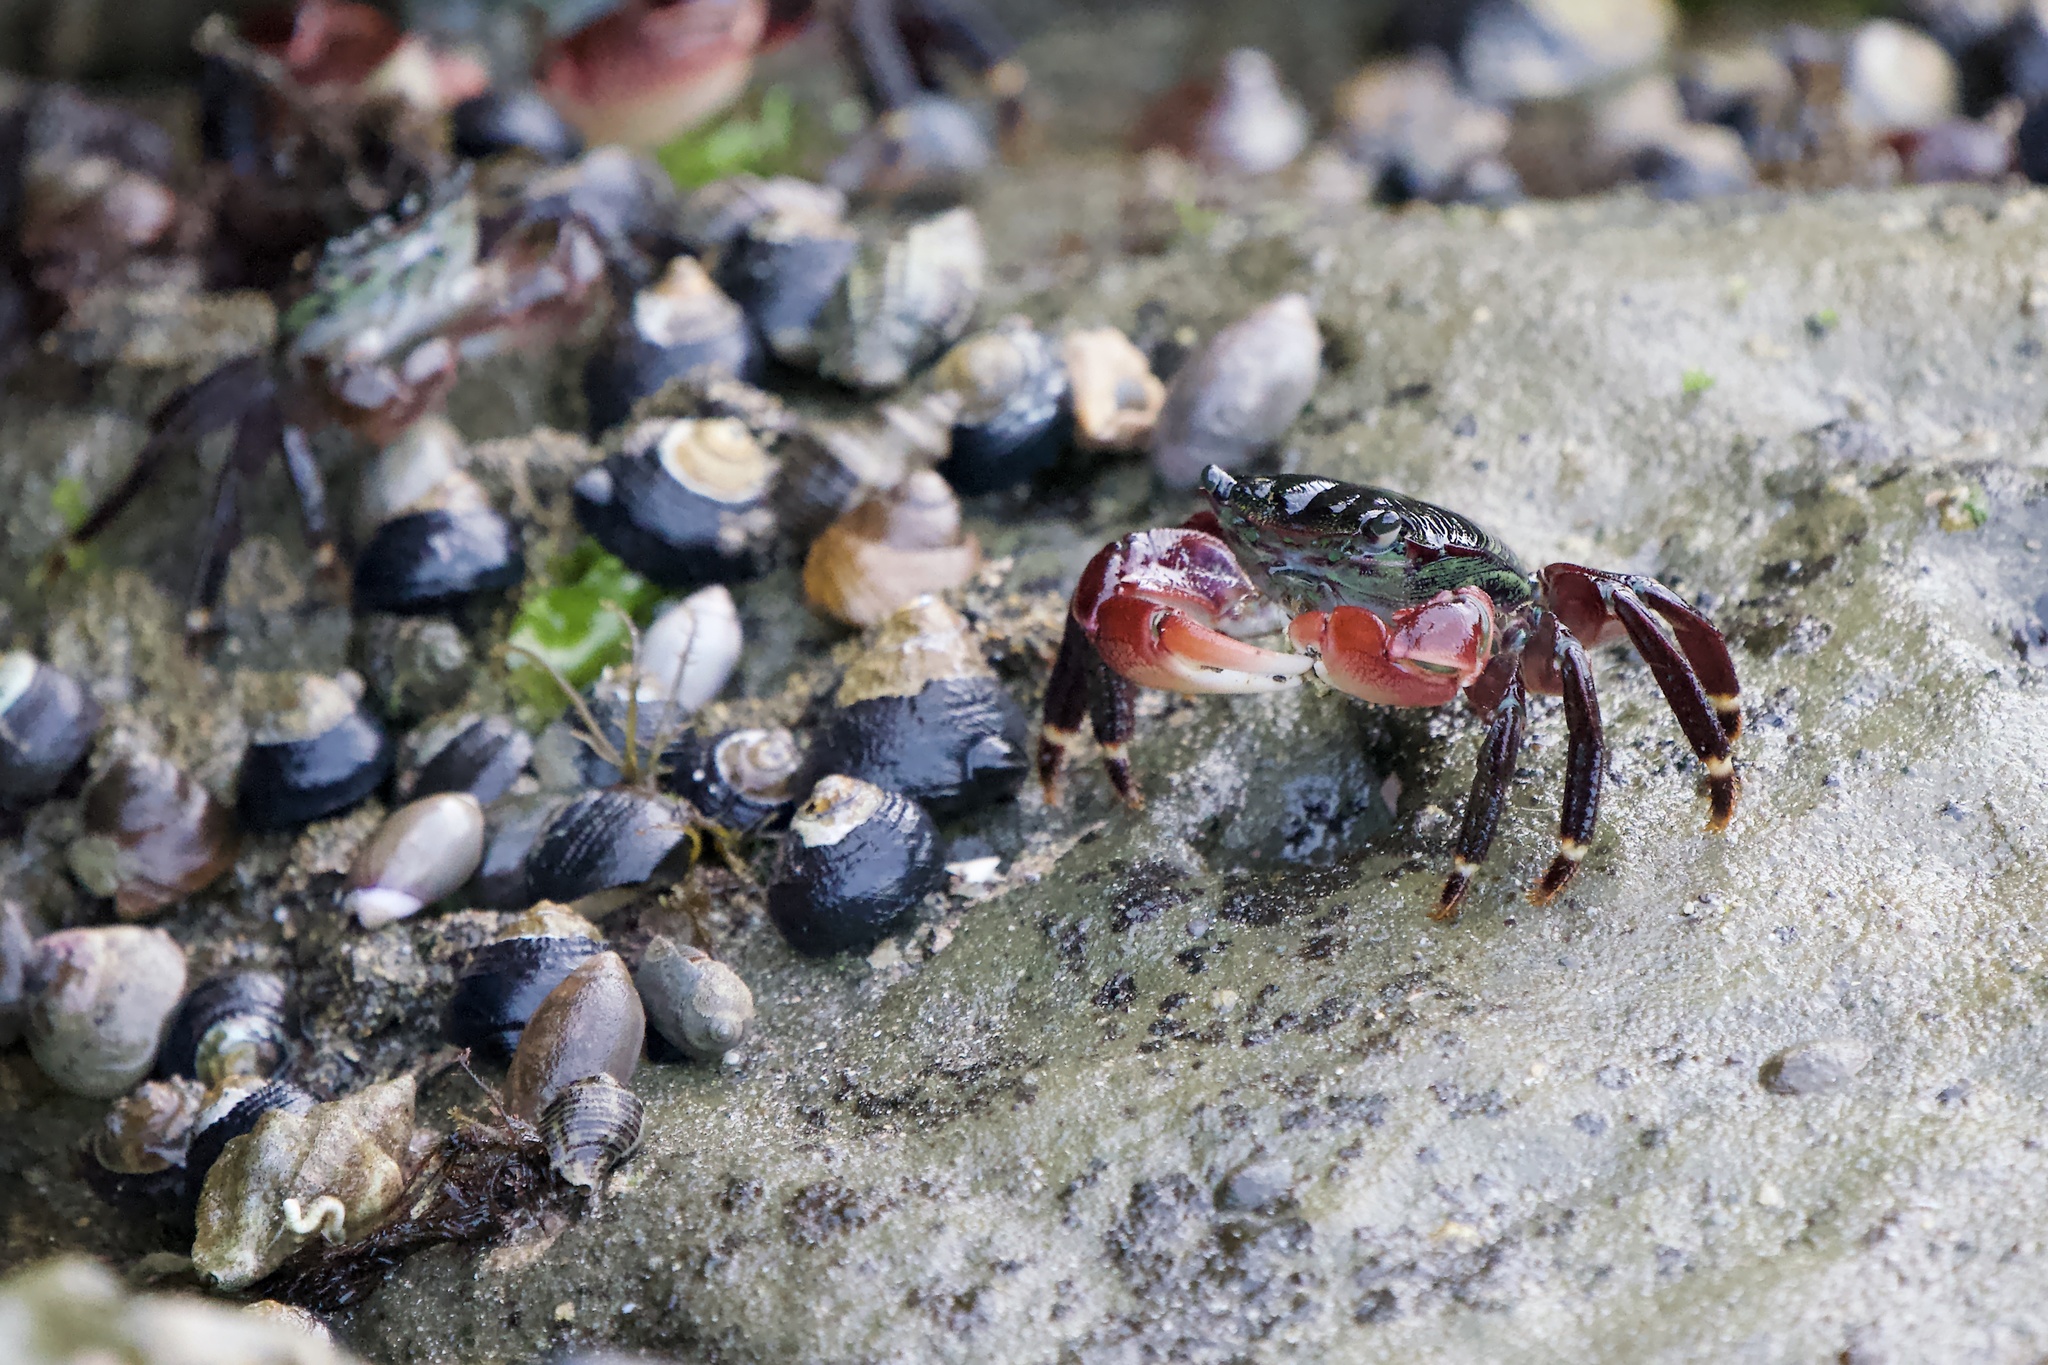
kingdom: Animalia
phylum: Arthropoda
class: Malacostraca
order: Decapoda
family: Grapsidae
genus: Pachygrapsus
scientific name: Pachygrapsus crassipes
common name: Striped shore crab
